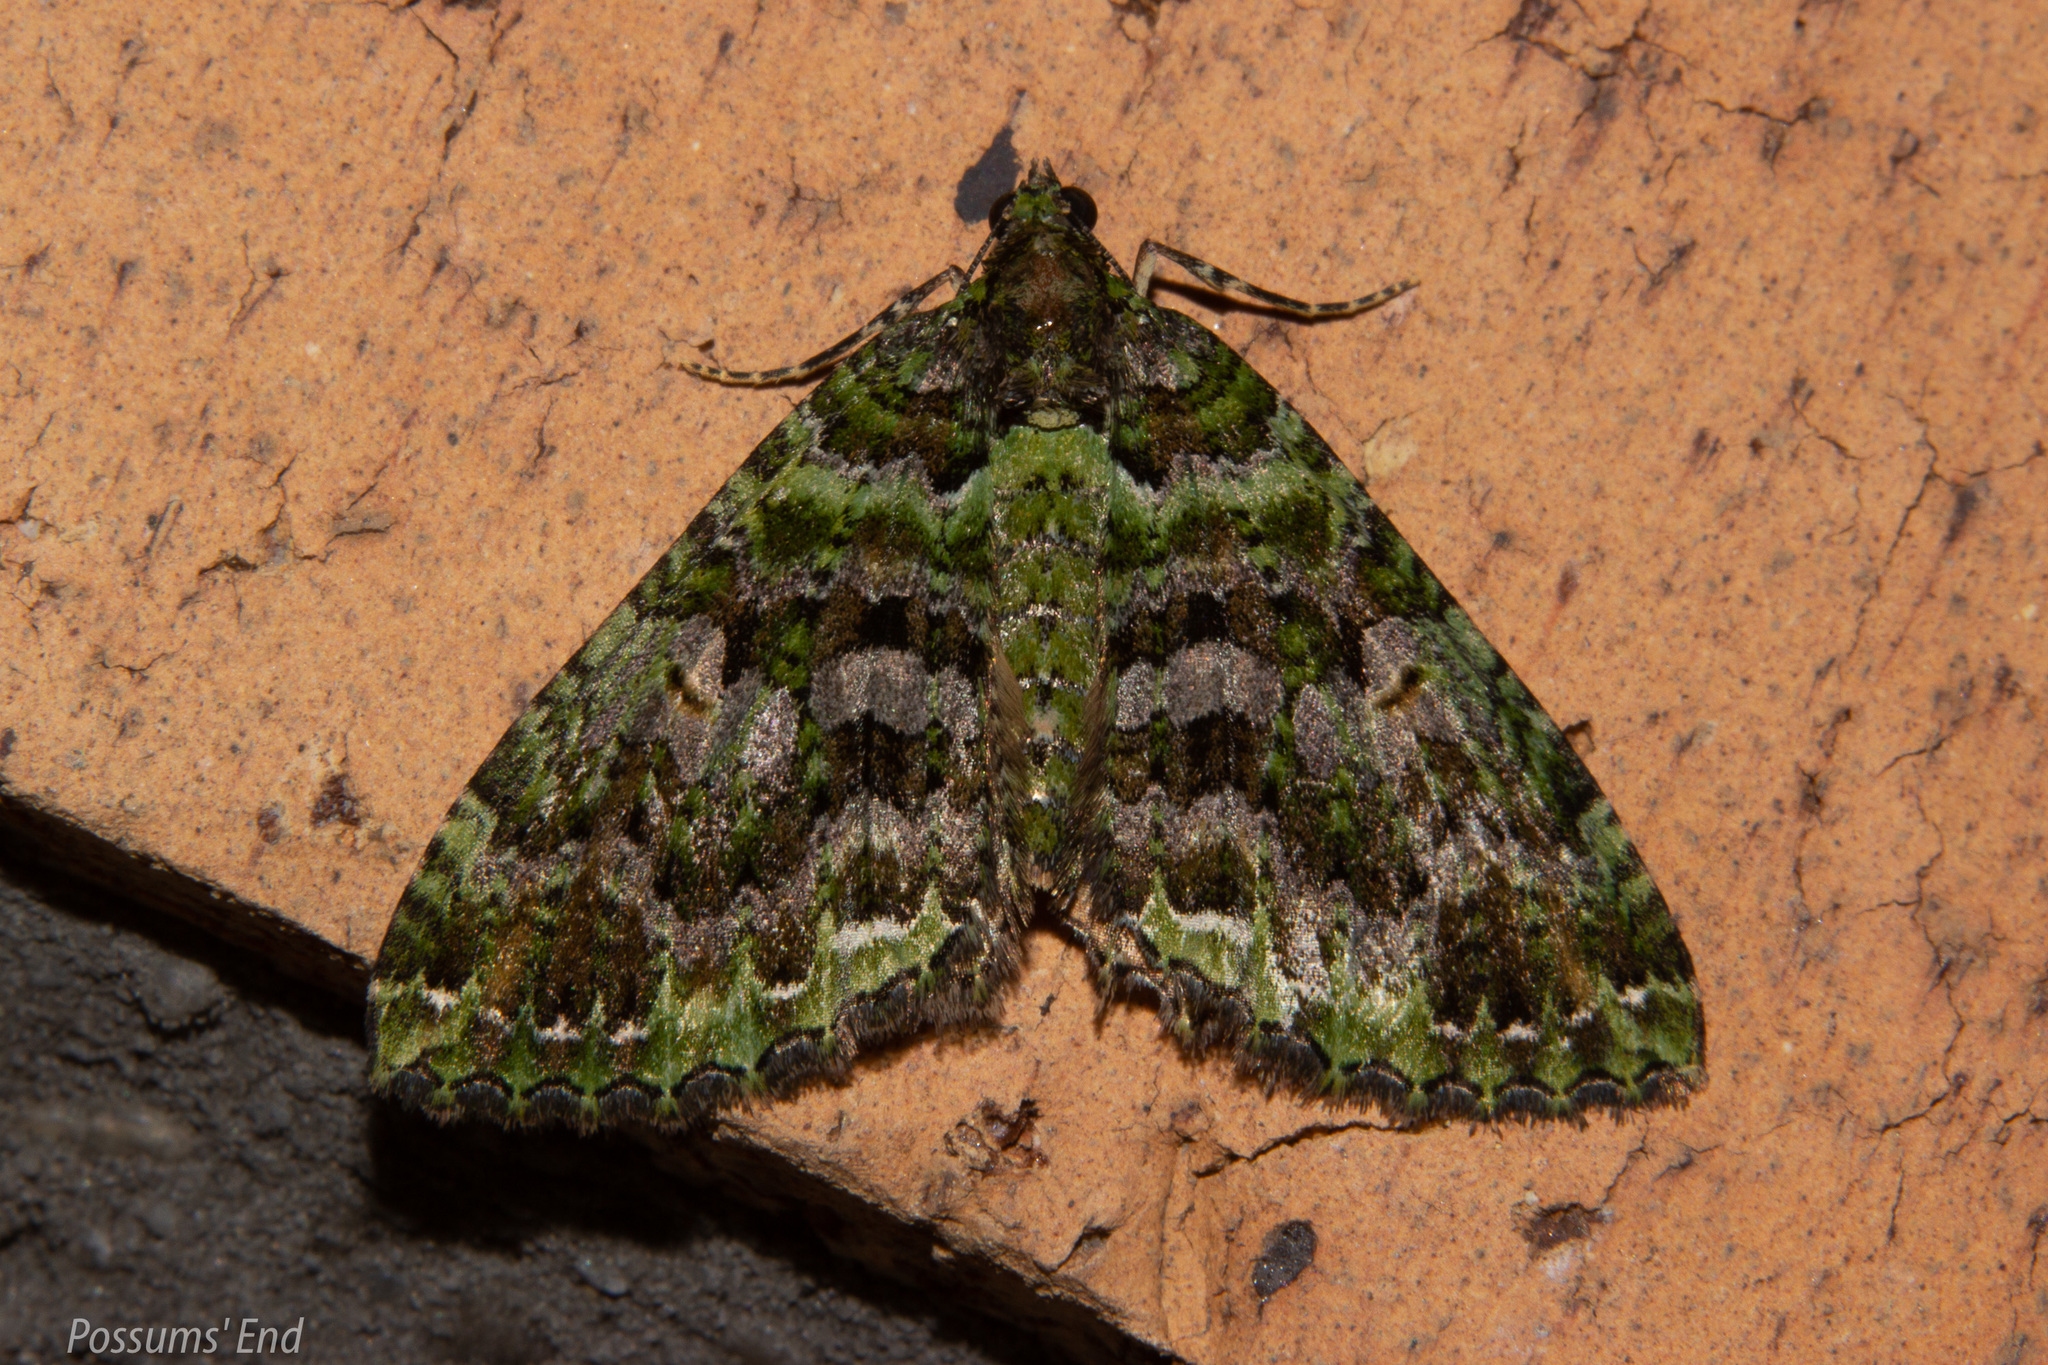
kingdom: Animalia
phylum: Arthropoda
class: Insecta
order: Lepidoptera
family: Geometridae
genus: Austrocidaria
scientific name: Austrocidaria similata
